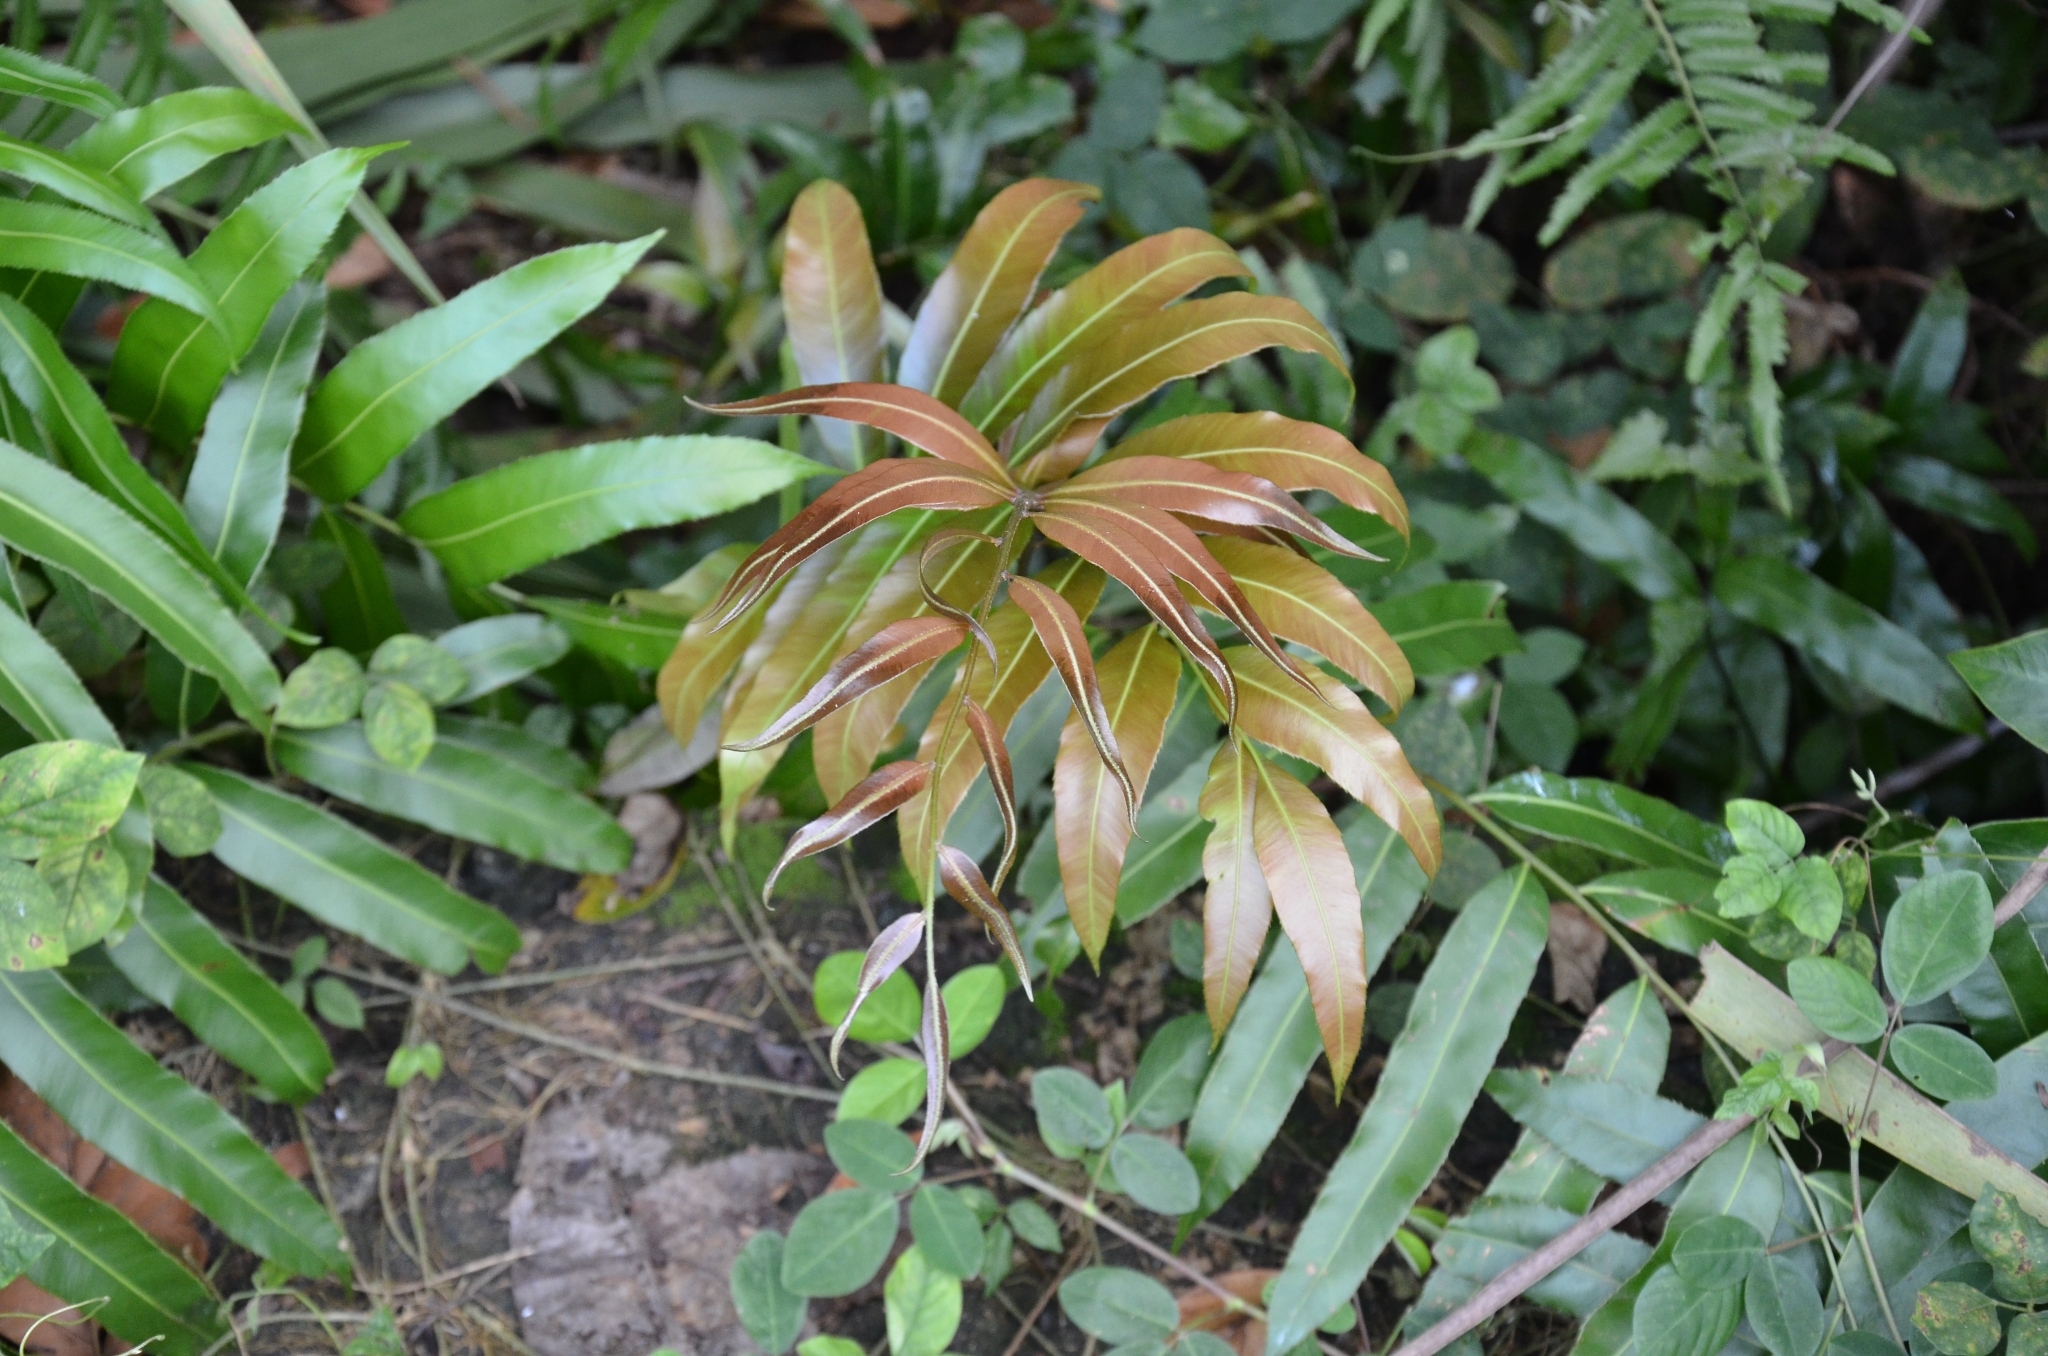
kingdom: Plantae
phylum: Tracheophyta
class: Polypodiopsida
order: Polypodiales
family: Blechnaceae
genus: Stenochlaena
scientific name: Stenochlaena palustris
